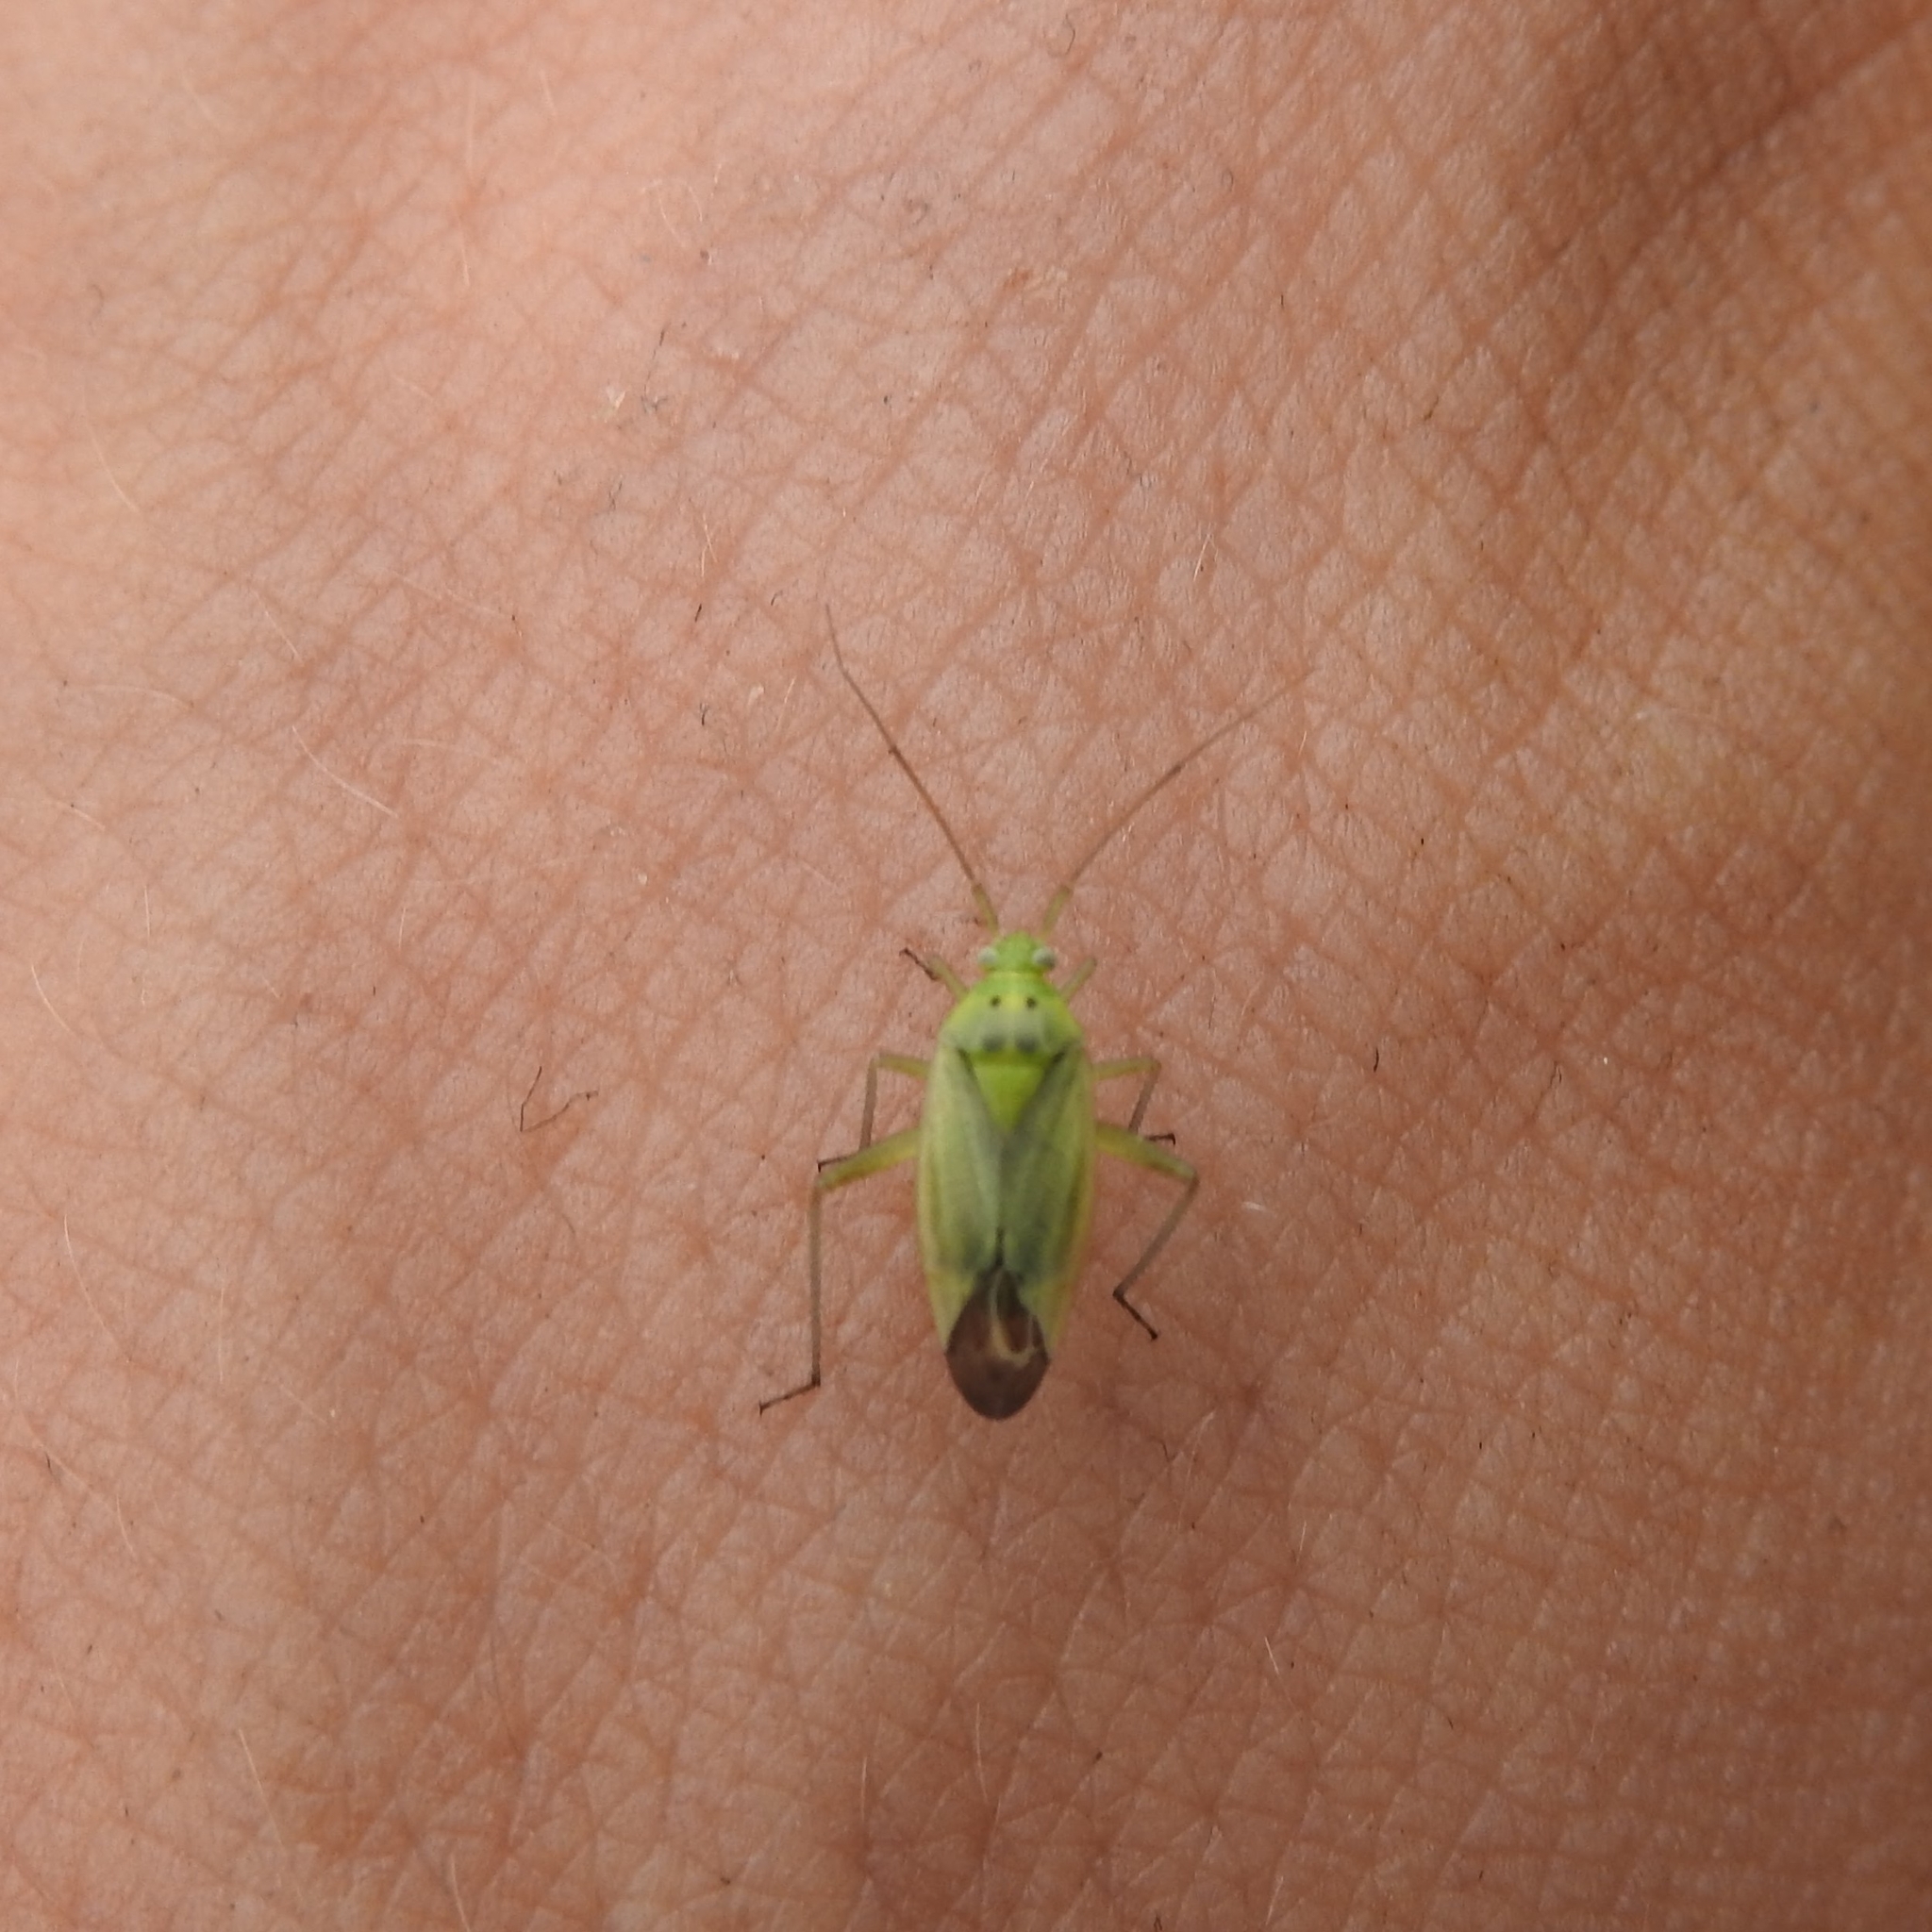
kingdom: Animalia
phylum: Arthropoda
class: Insecta
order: Hemiptera
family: Miridae
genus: Closterotomus
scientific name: Closterotomus norvegicus
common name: Plant bug
